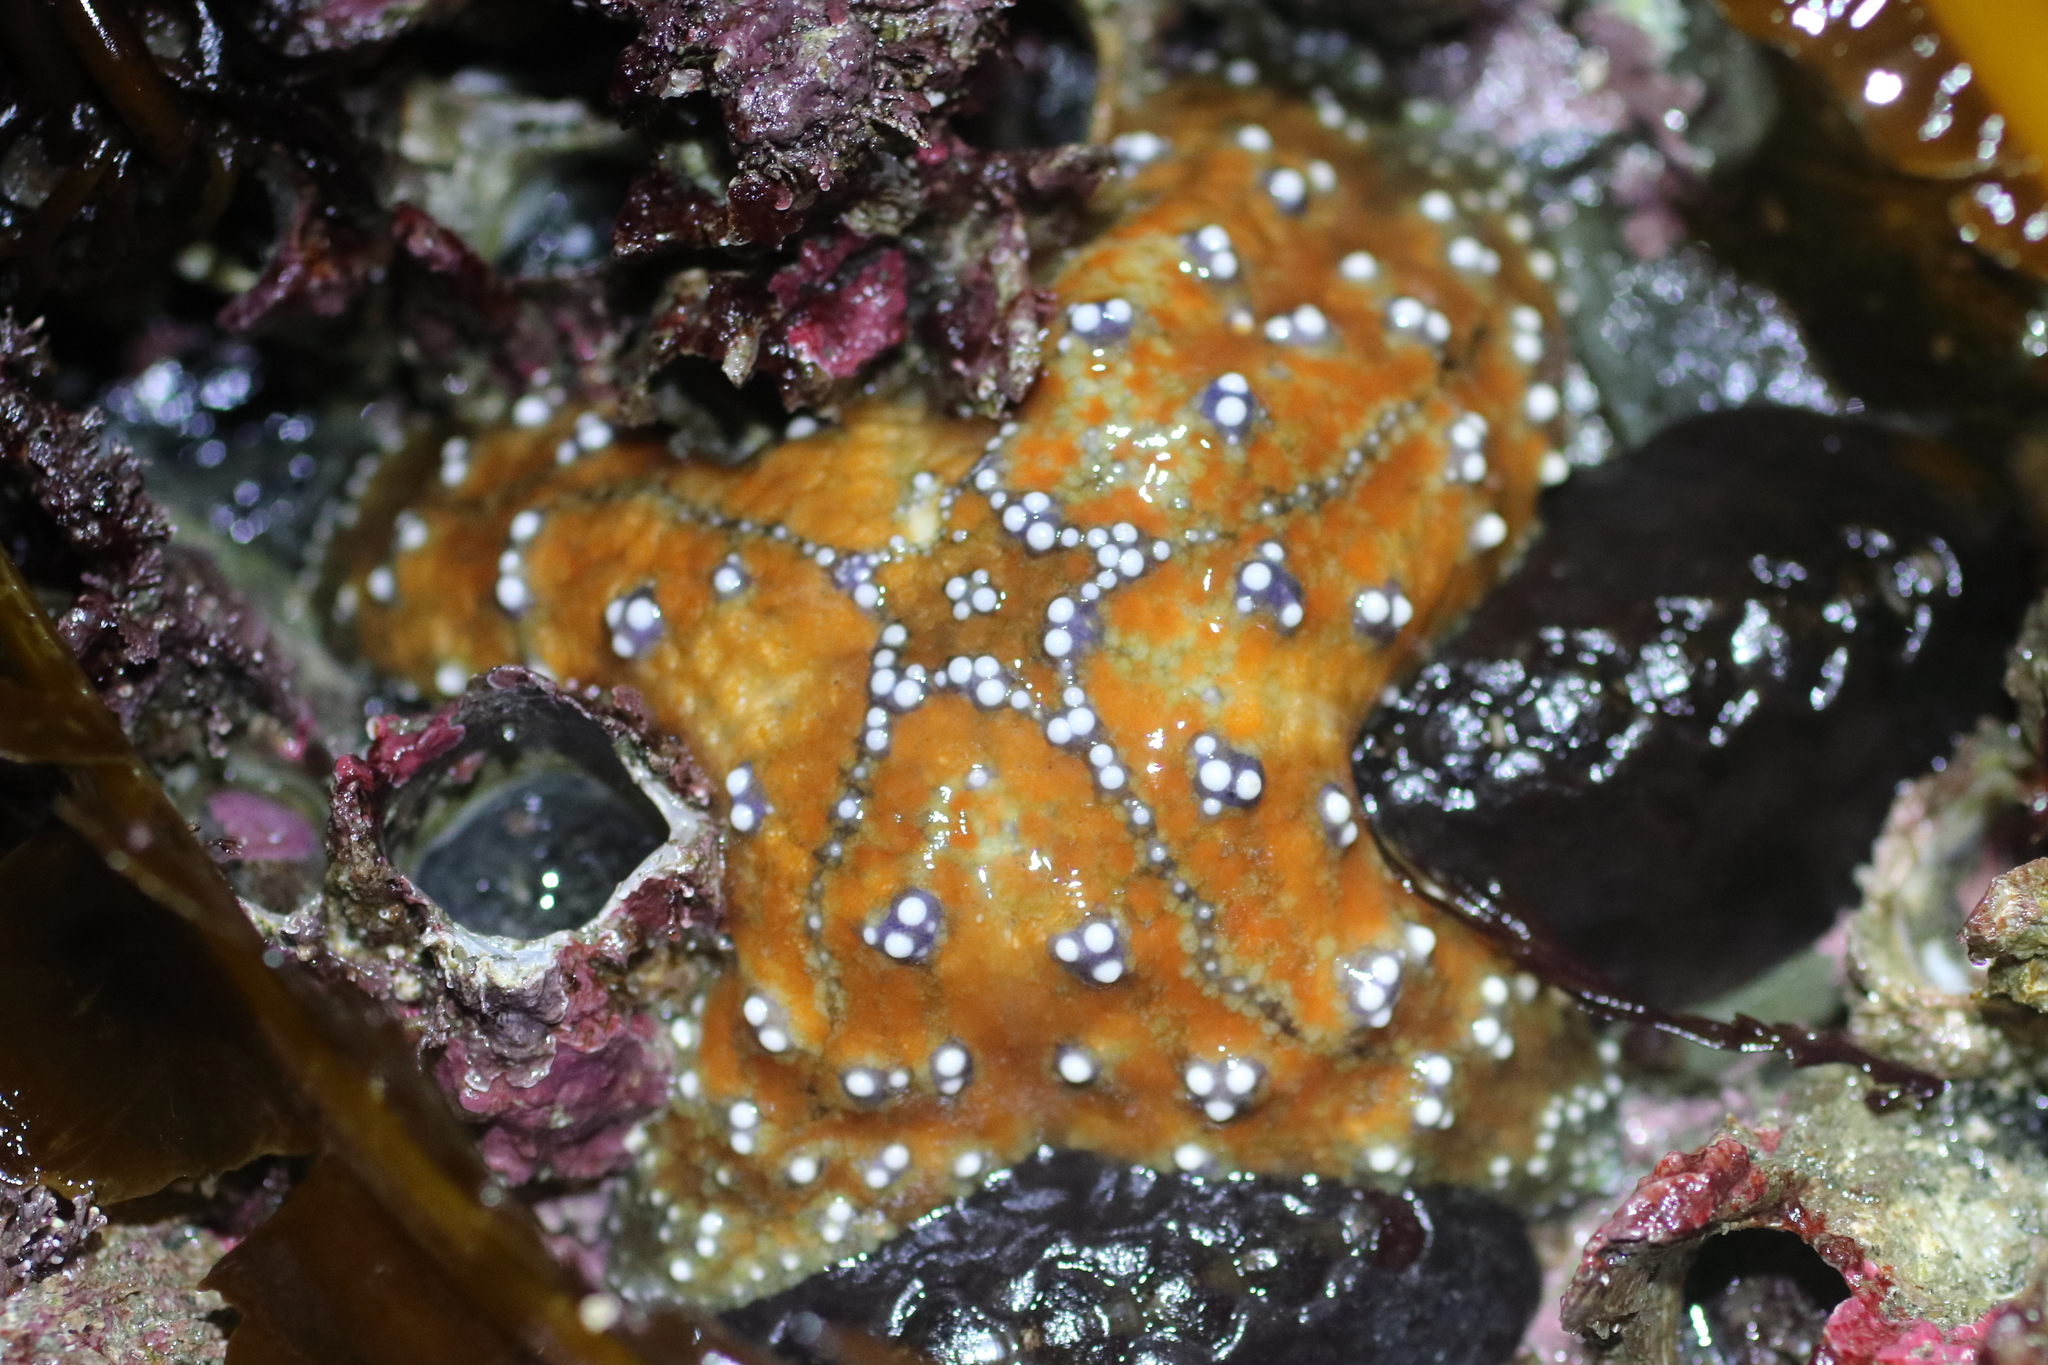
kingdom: Animalia
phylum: Echinodermata
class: Asteroidea
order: Forcipulatida
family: Asteriidae
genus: Pisaster
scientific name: Pisaster ochraceus
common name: Ochre stars
